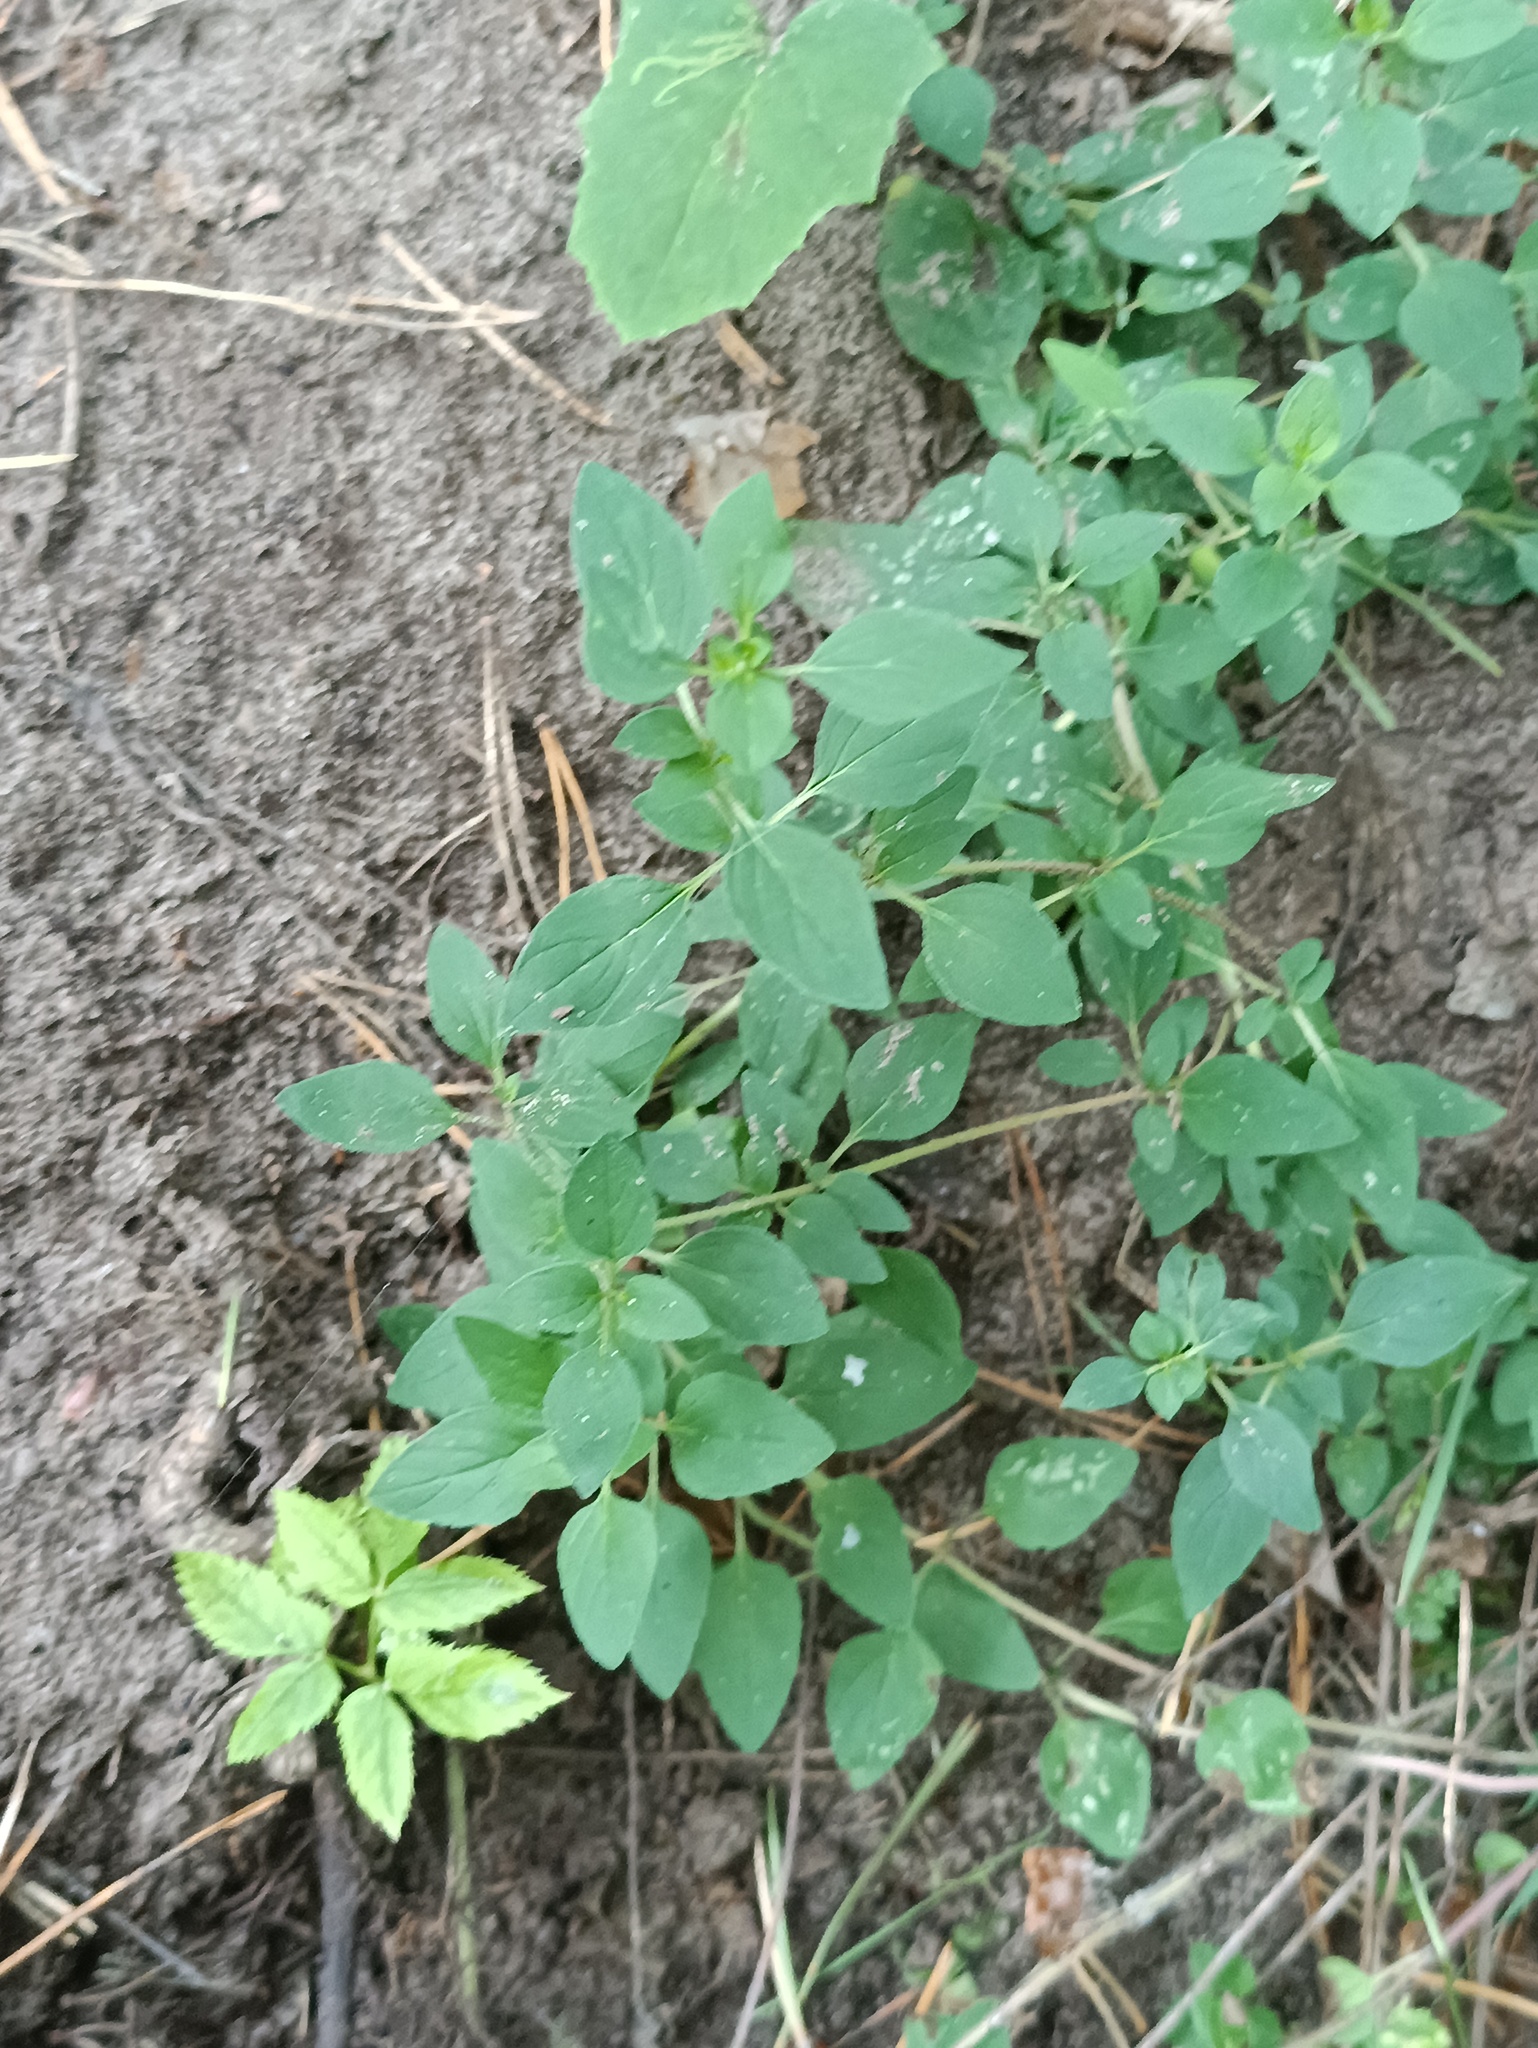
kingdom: Plantae
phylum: Tracheophyta
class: Magnoliopsida
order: Lamiales
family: Lamiaceae
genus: Origanum
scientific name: Origanum vulgare
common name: Wild marjoram
